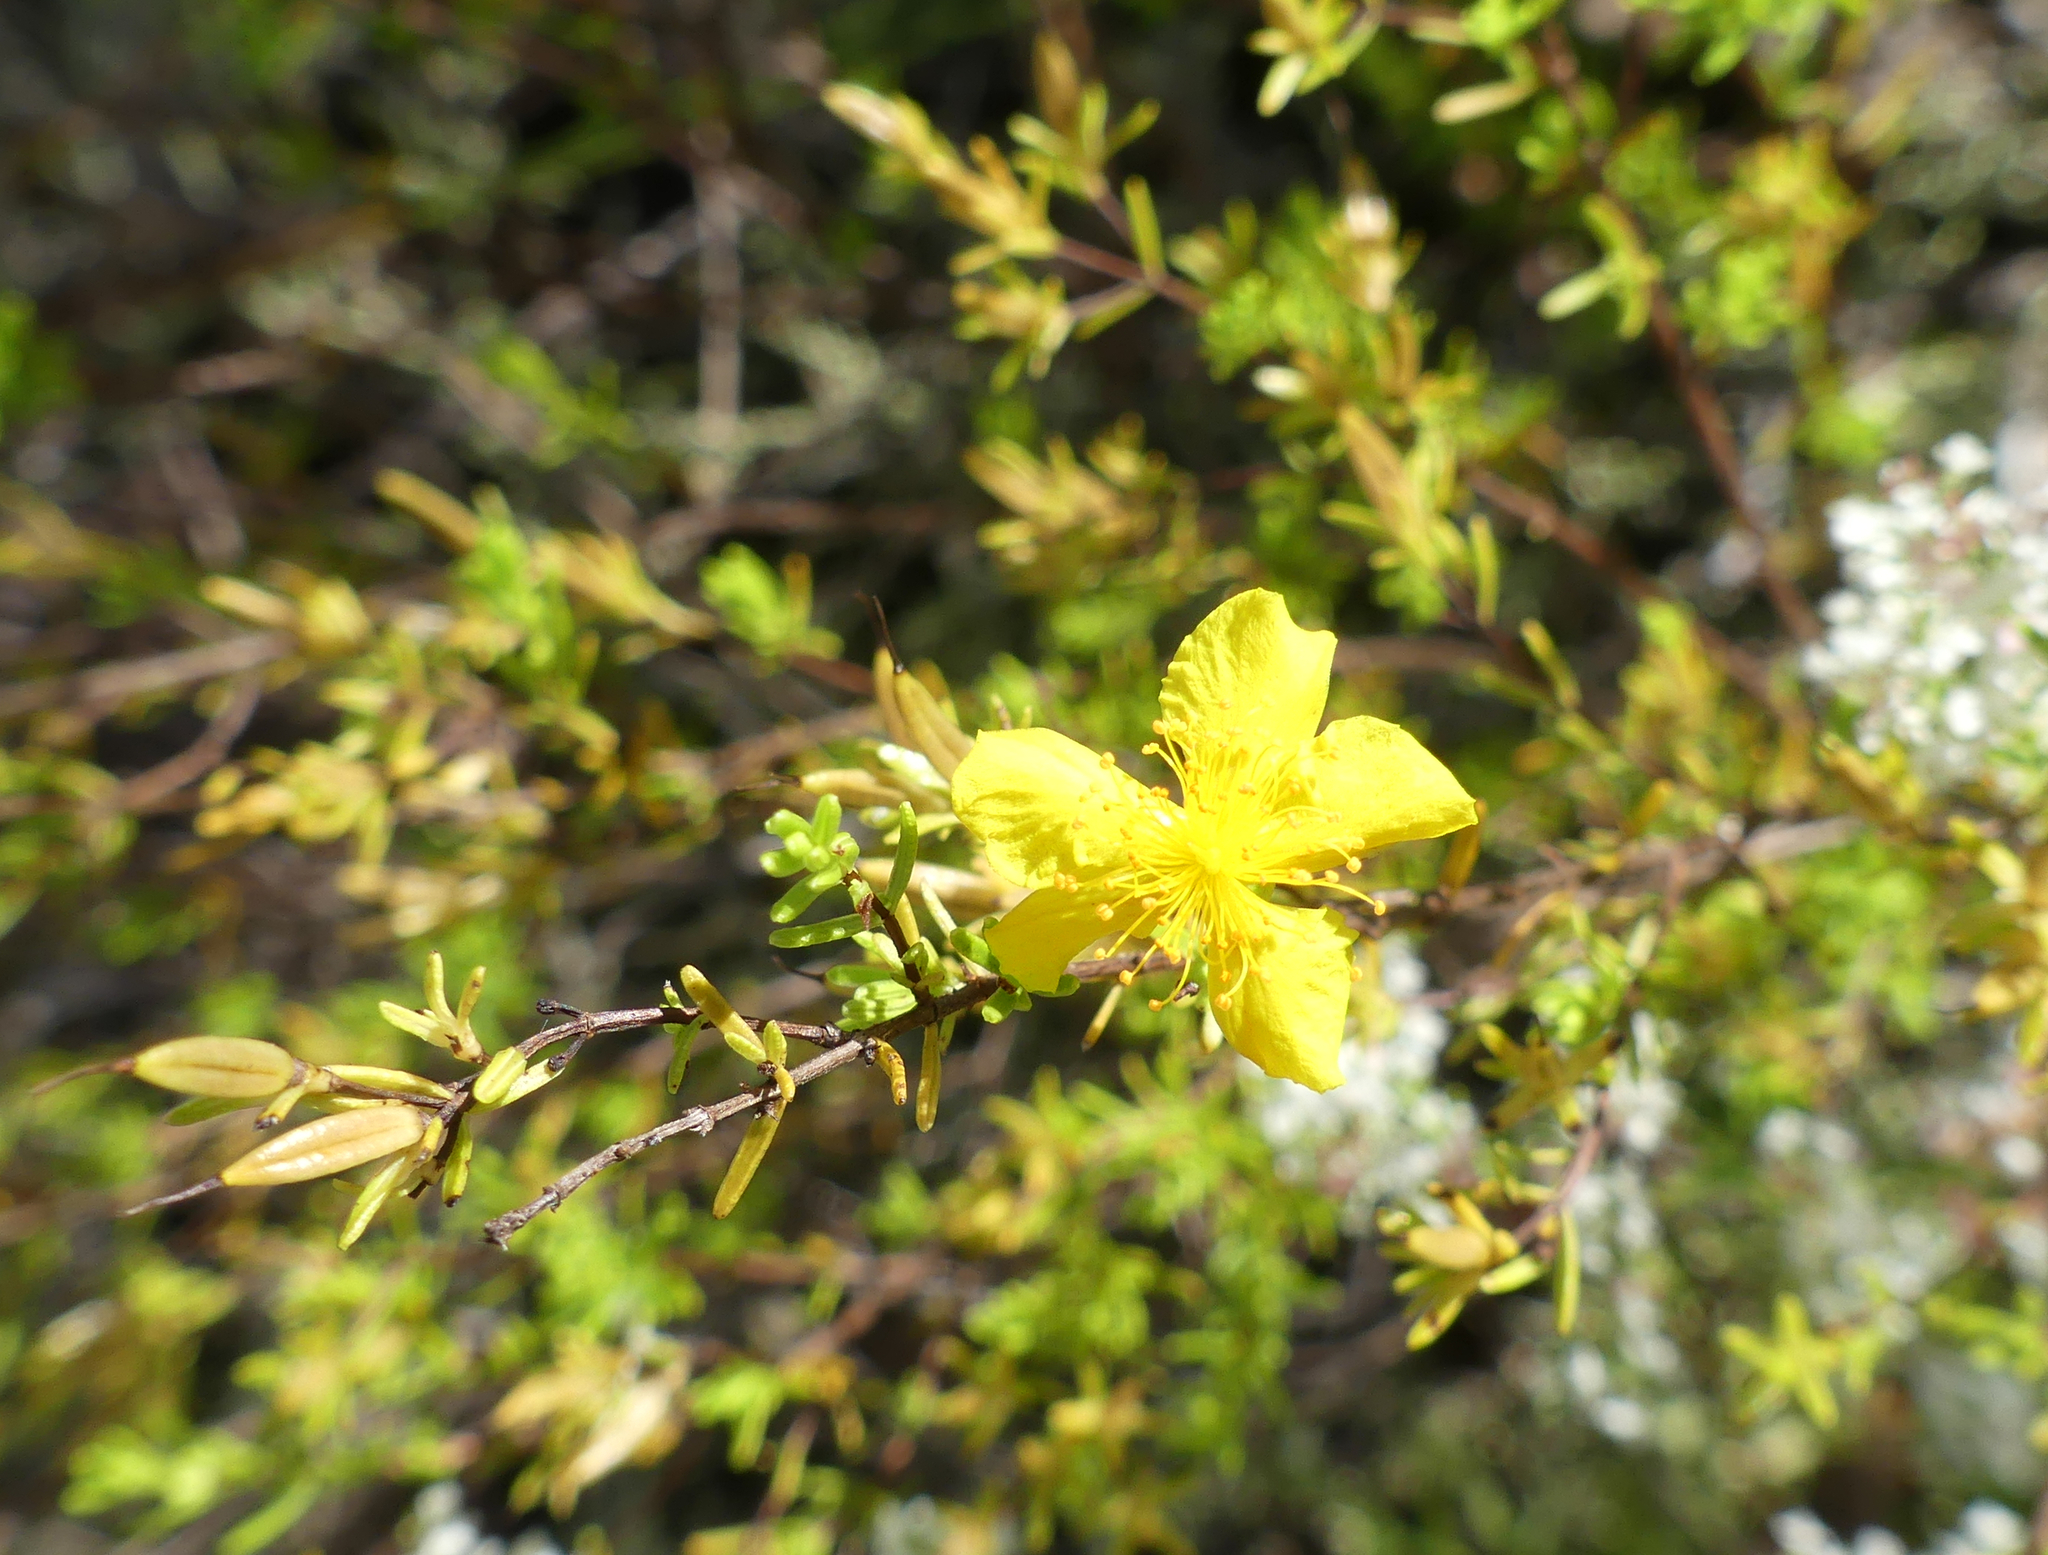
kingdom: Plantae
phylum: Tracheophyta
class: Magnoliopsida
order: Malpighiales
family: Hypericaceae
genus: Hypericum
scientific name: Hypericum tenuifolium
